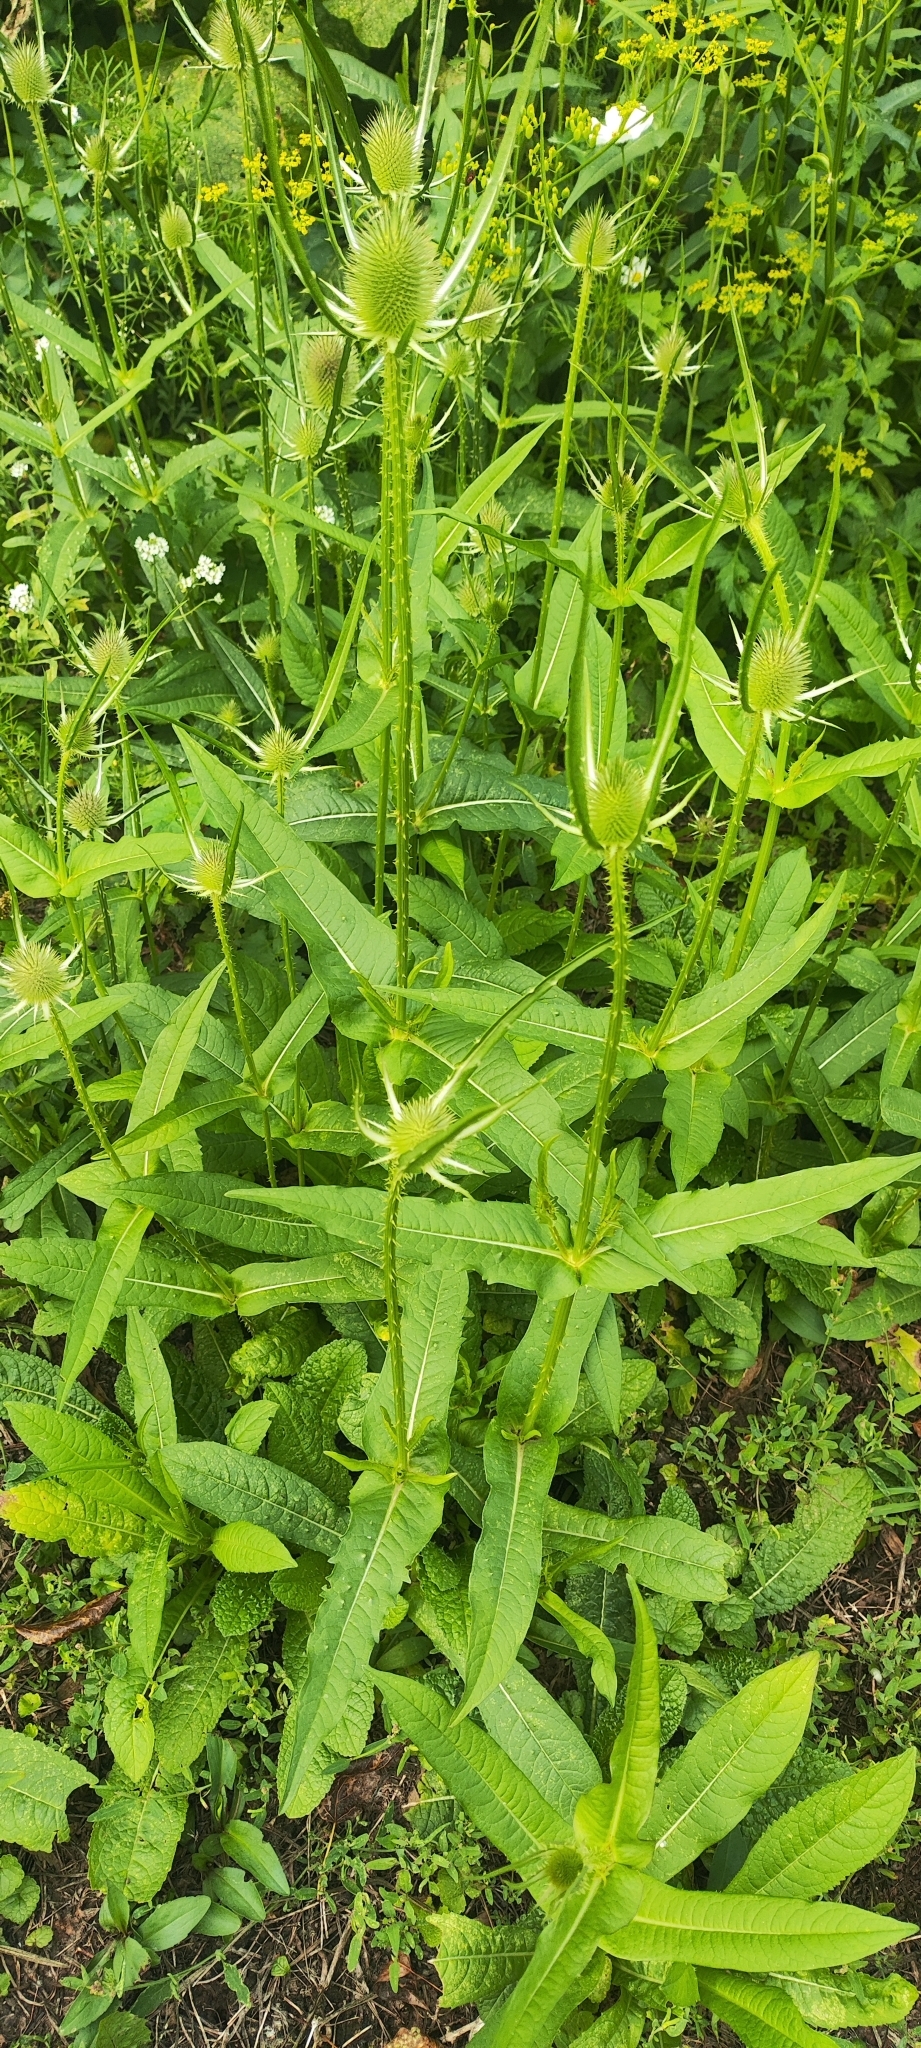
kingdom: Plantae
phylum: Tracheophyta
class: Magnoliopsida
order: Dipsacales
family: Caprifoliaceae
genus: Dipsacus
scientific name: Dipsacus fullonum
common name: Teasel
